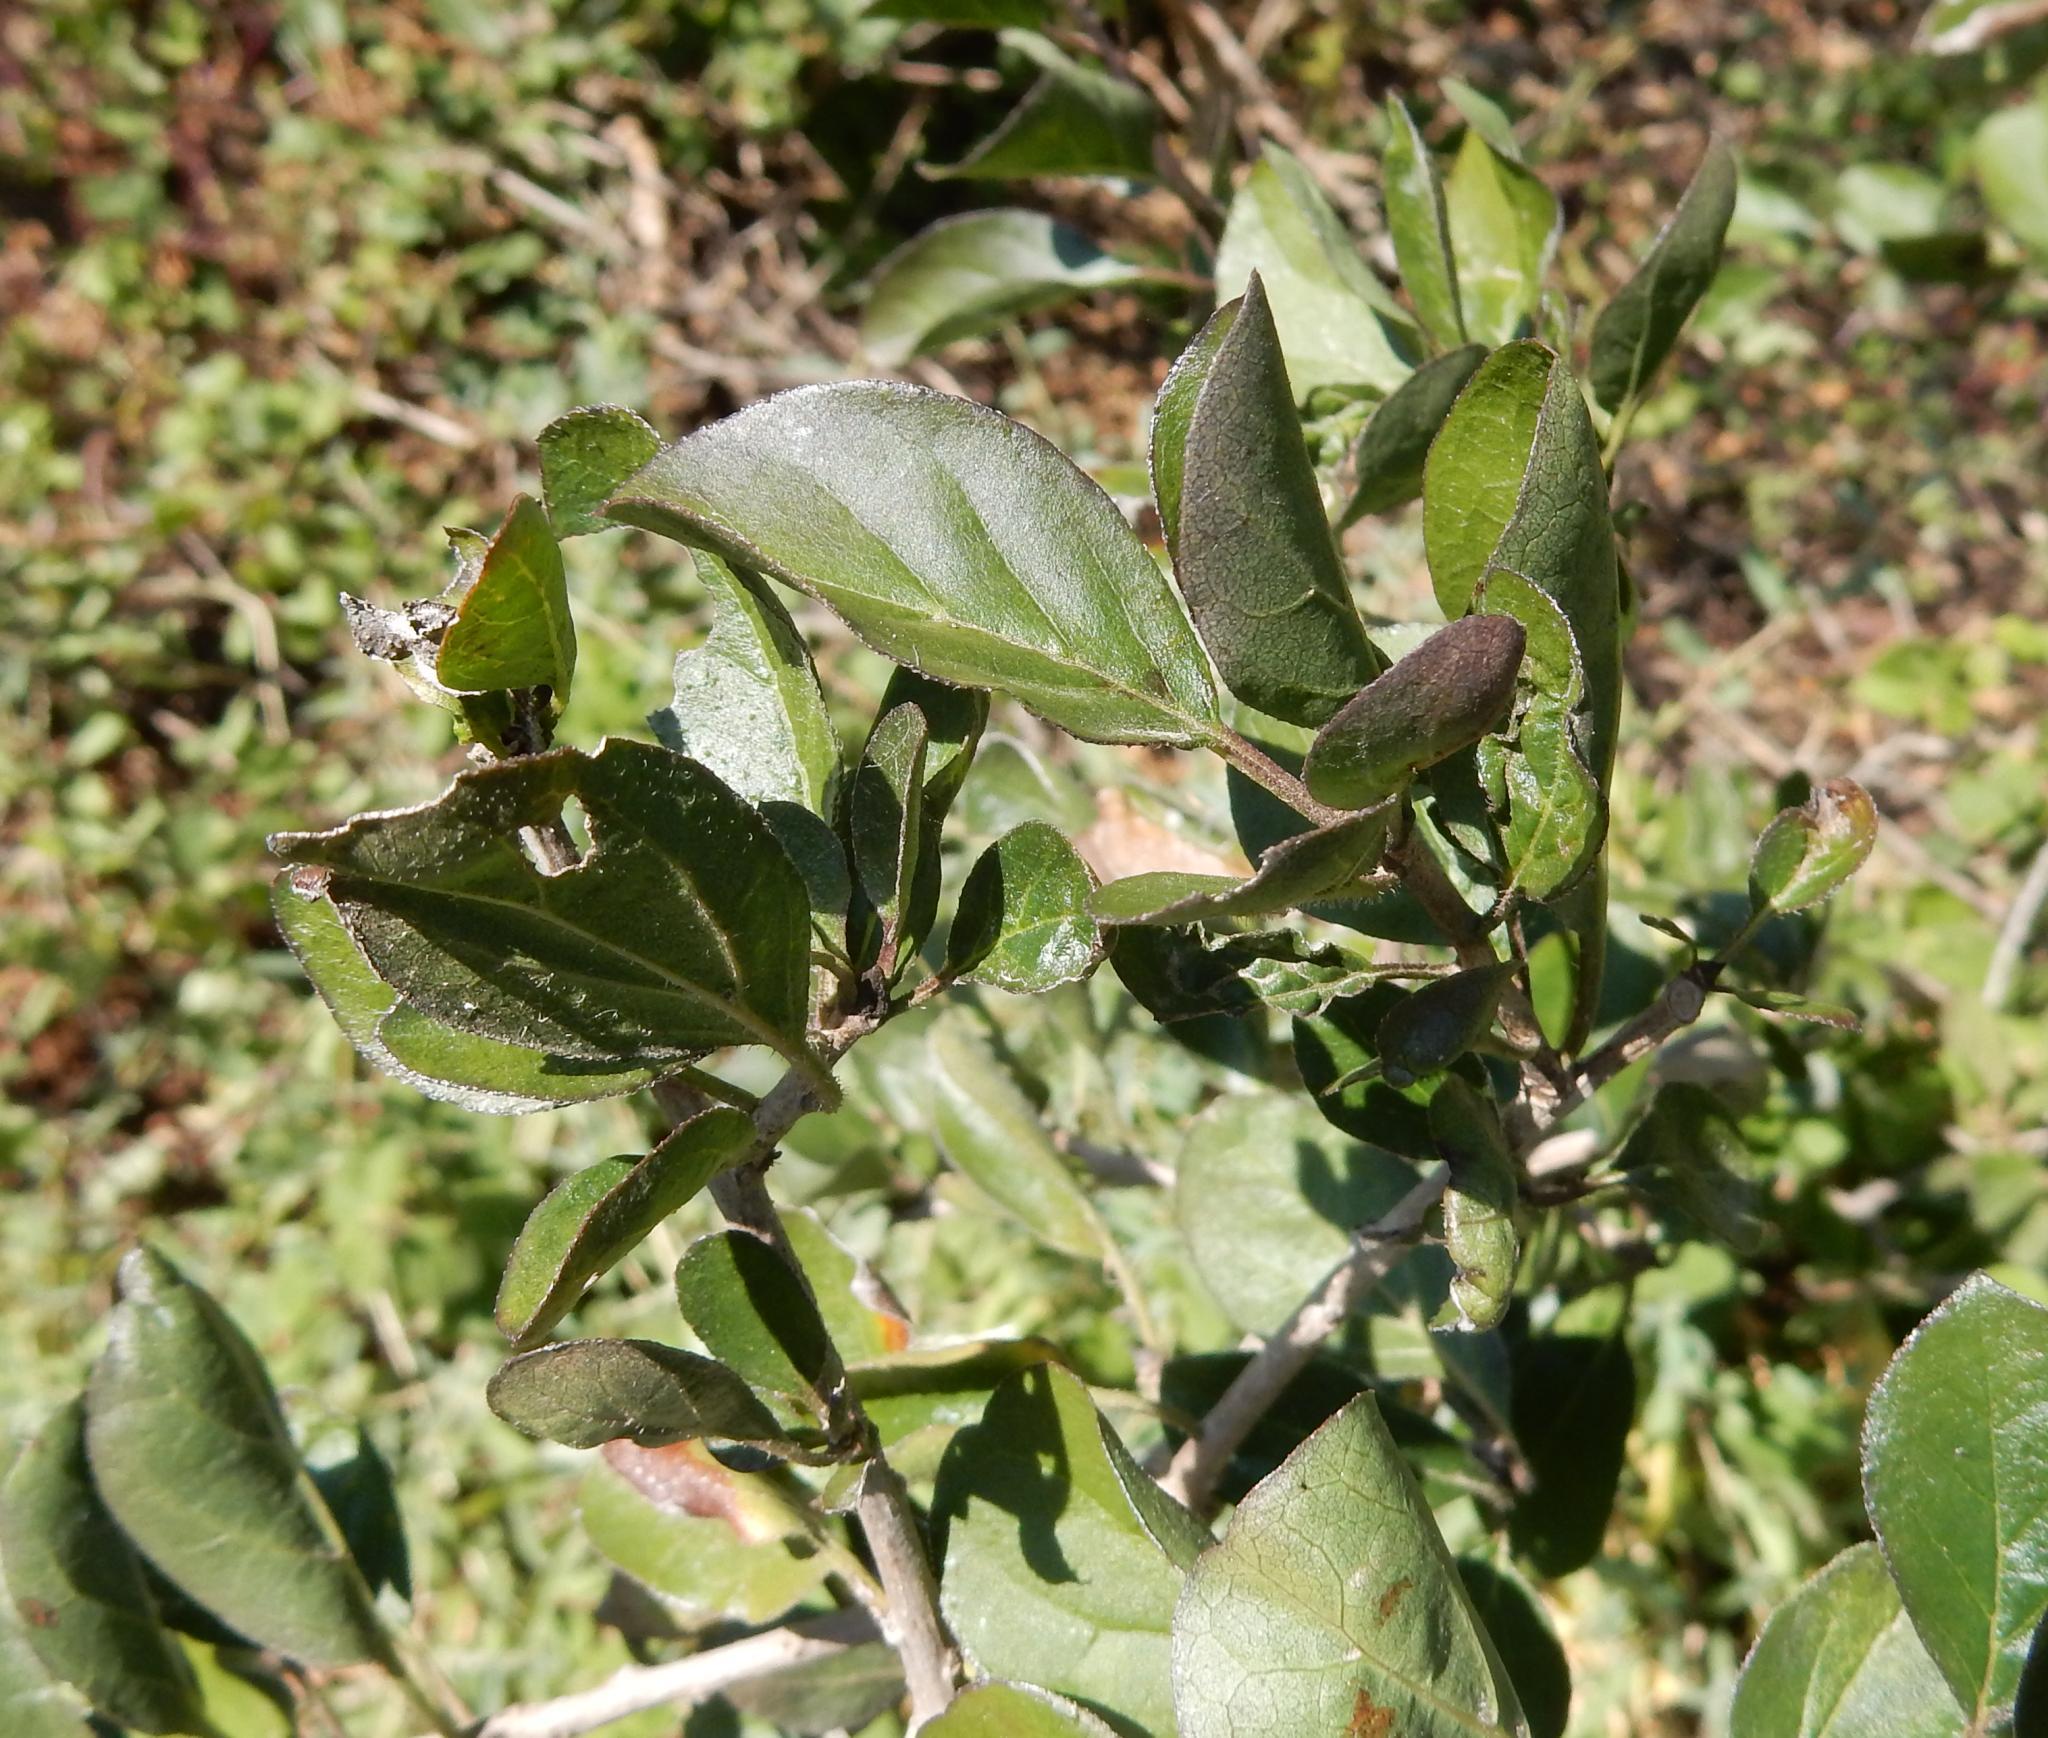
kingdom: Plantae
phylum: Tracheophyta
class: Magnoliopsida
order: Boraginales
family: Ehretiaceae
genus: Ehretia
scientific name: Ehretia rigida
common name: Cape lilac
